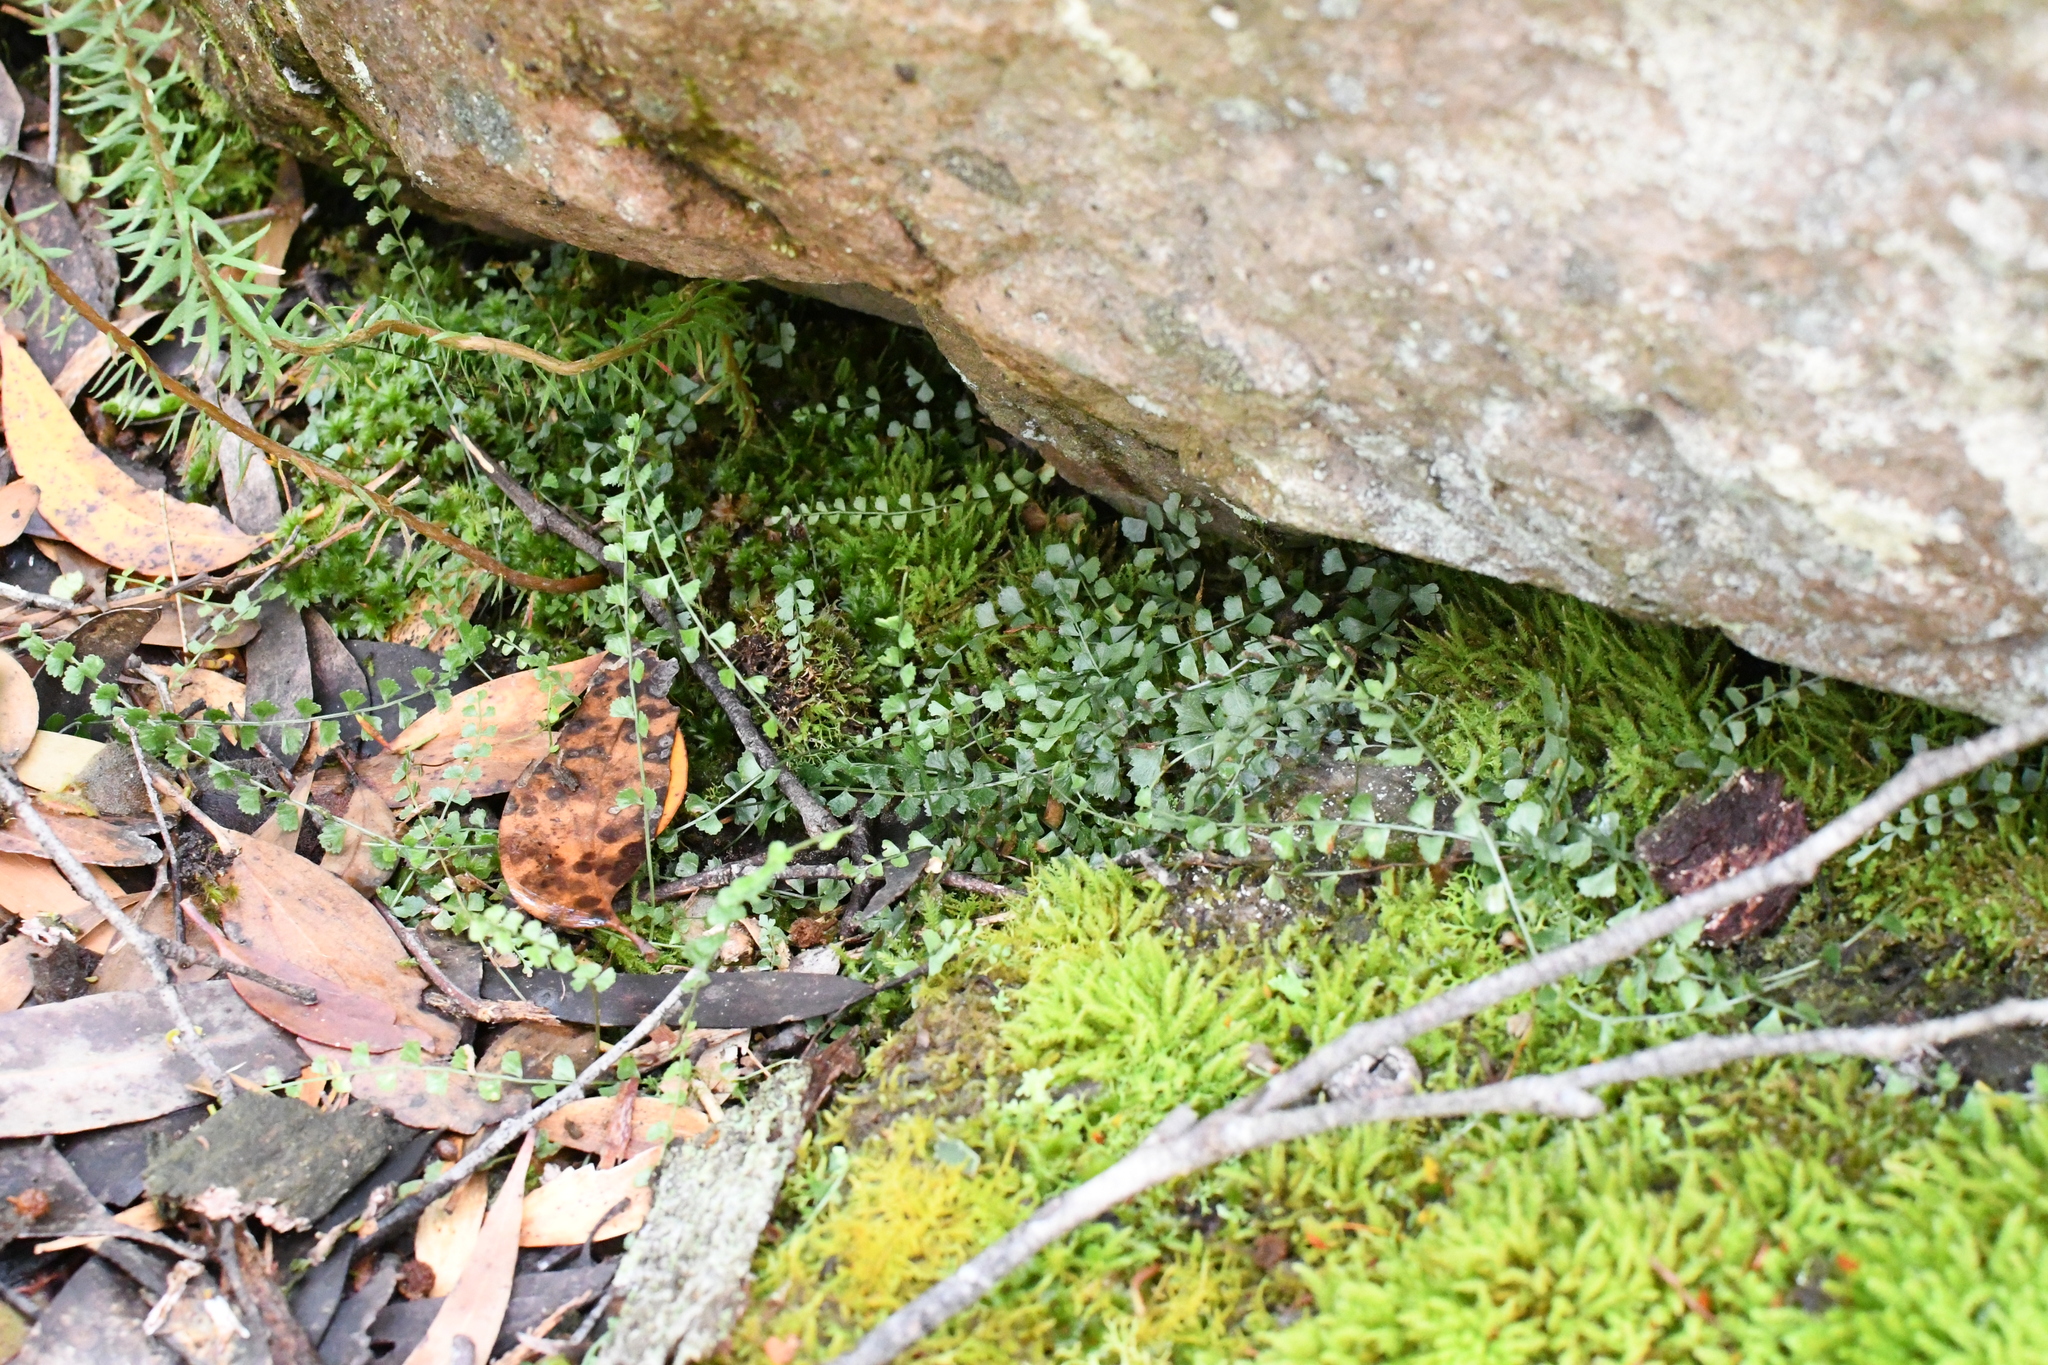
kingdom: Plantae
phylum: Tracheophyta
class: Polypodiopsida
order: Polypodiales
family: Aspleniaceae
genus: Asplenium
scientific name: Asplenium flabellifolium
